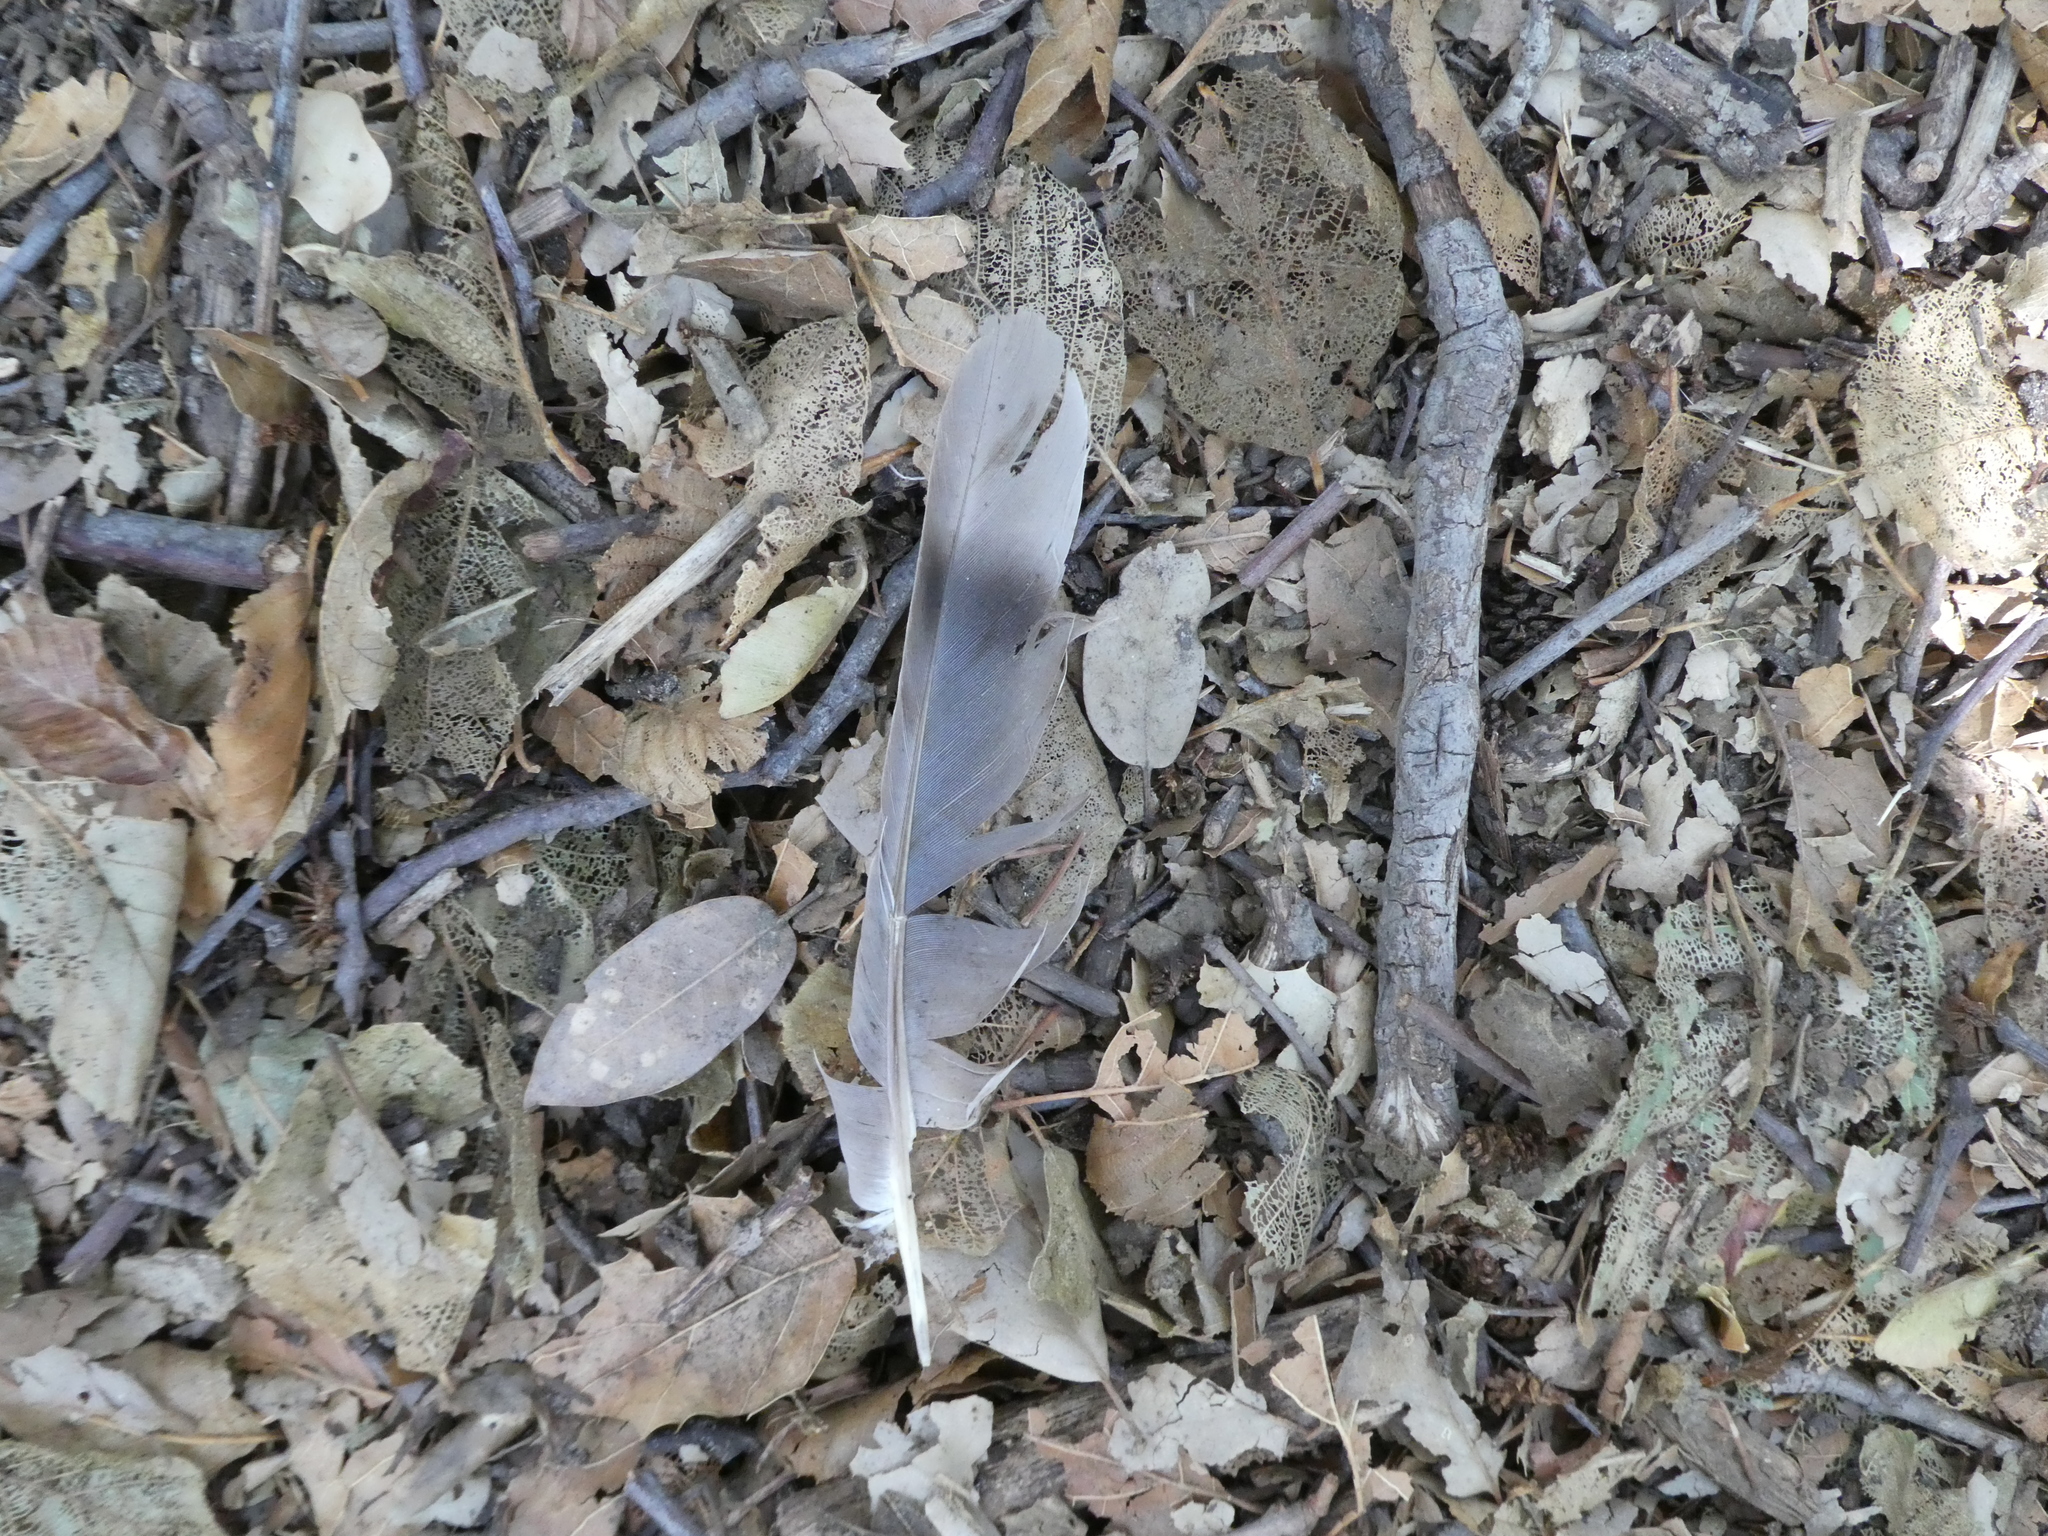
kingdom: Animalia
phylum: Chordata
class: Aves
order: Columbiformes
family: Columbidae
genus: Patagioenas
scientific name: Patagioenas fasciata
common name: Band-tailed pigeon
